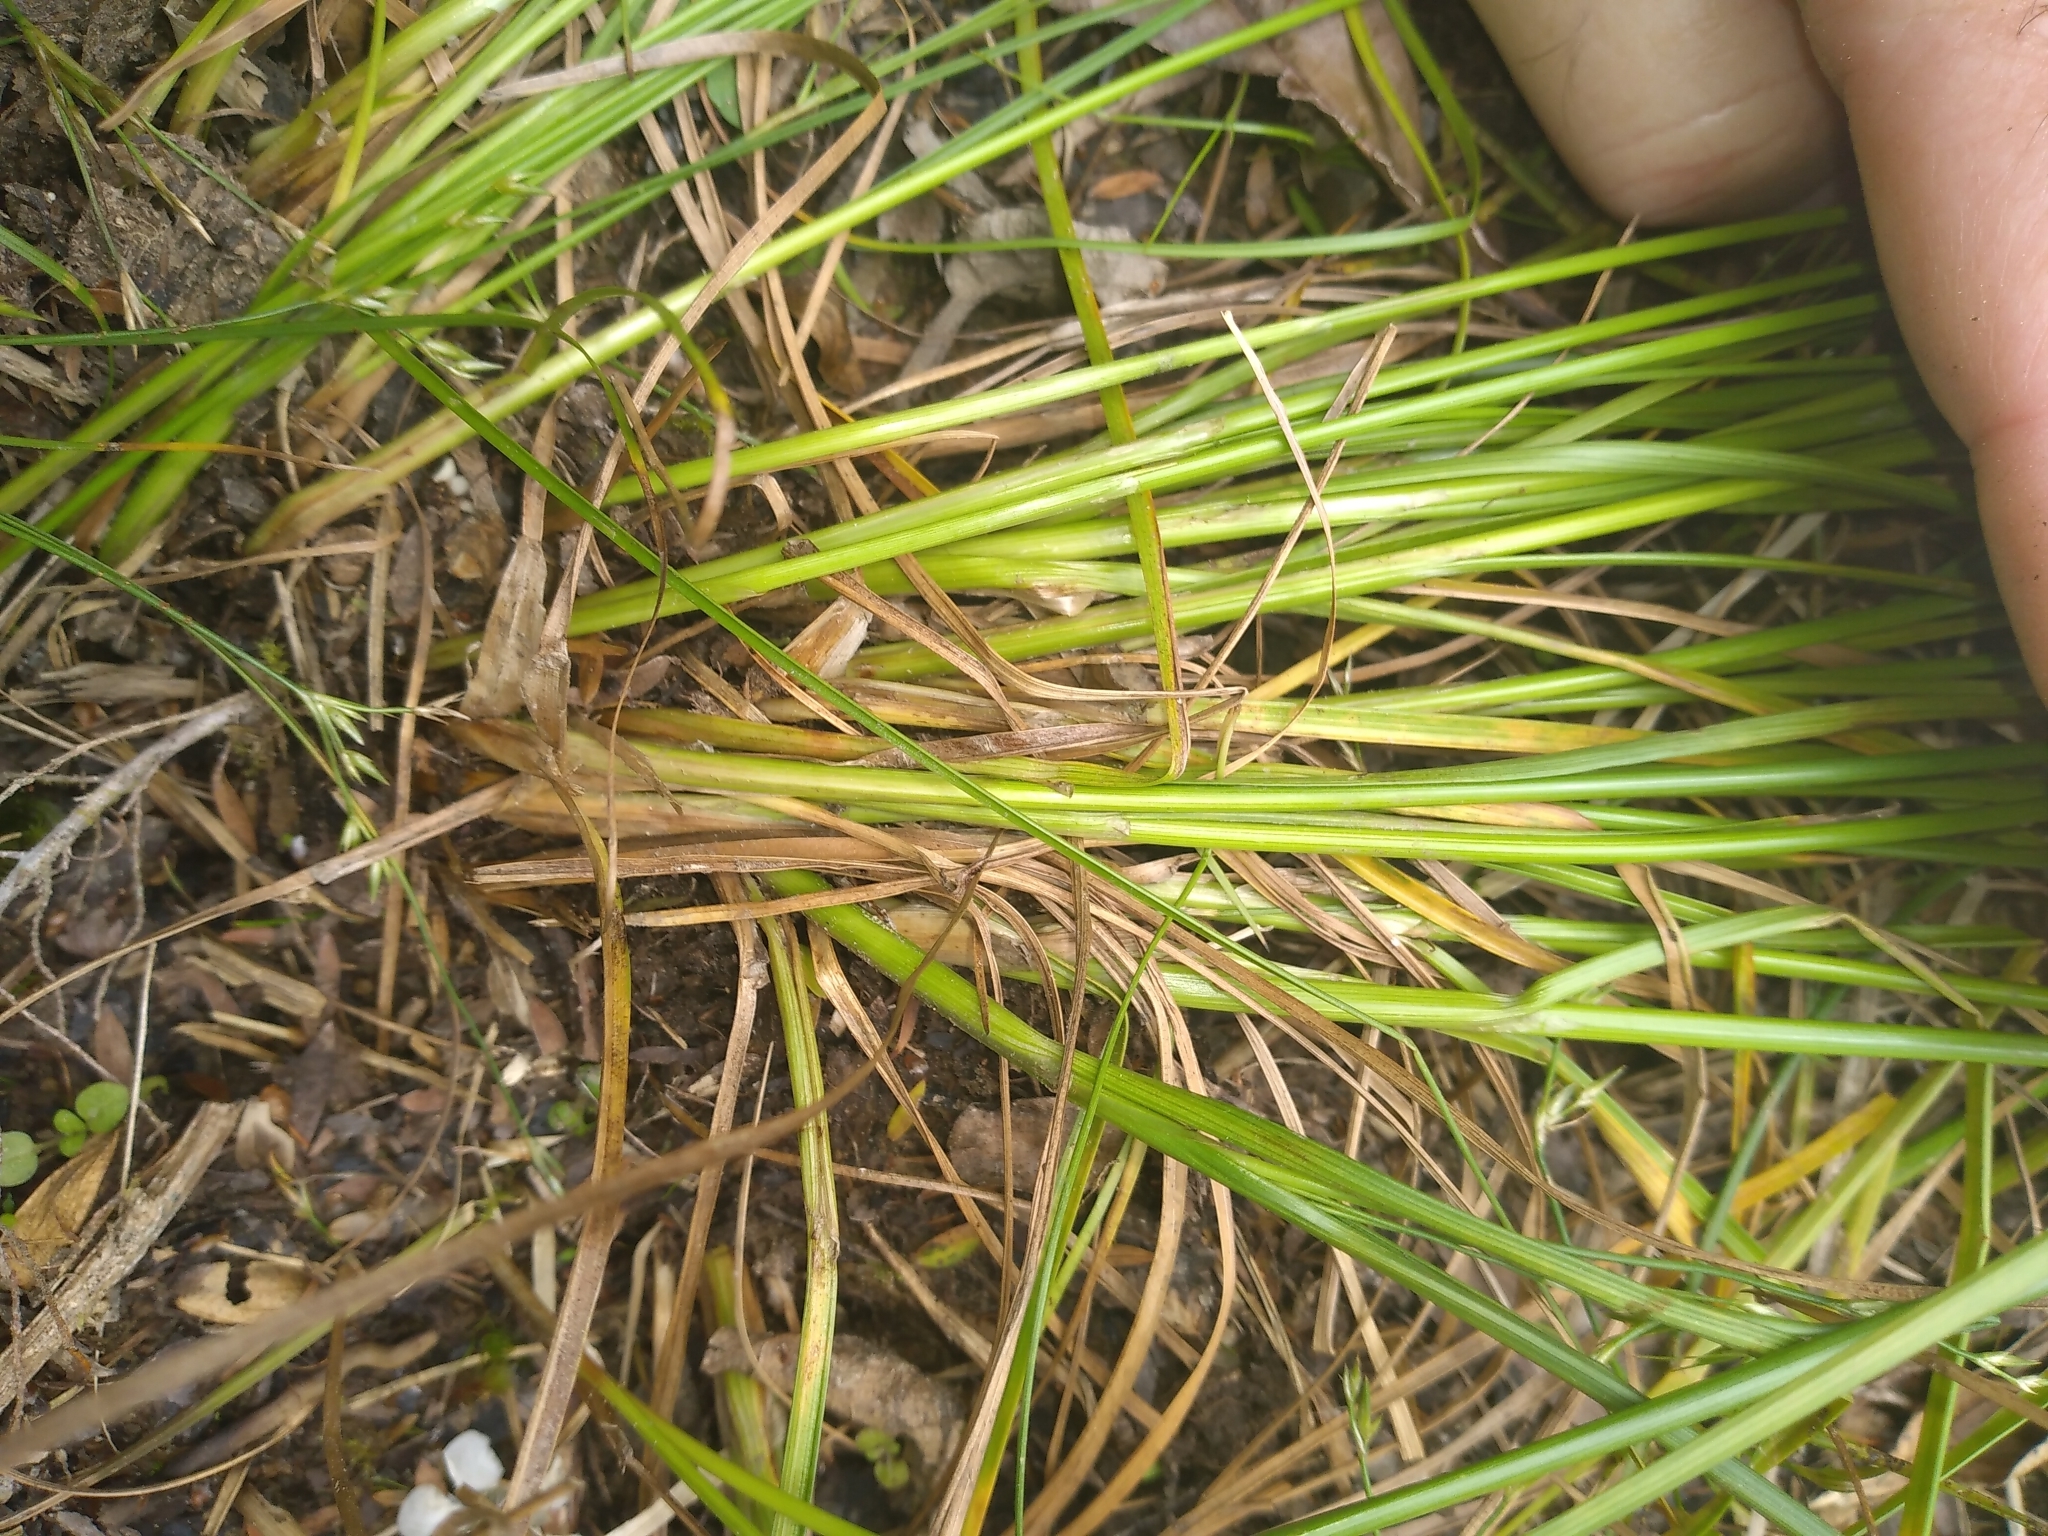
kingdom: Plantae
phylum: Tracheophyta
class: Liliopsida
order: Poales
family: Juncaceae
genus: Juncus
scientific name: Juncus anthelatus
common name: Giant path rush
